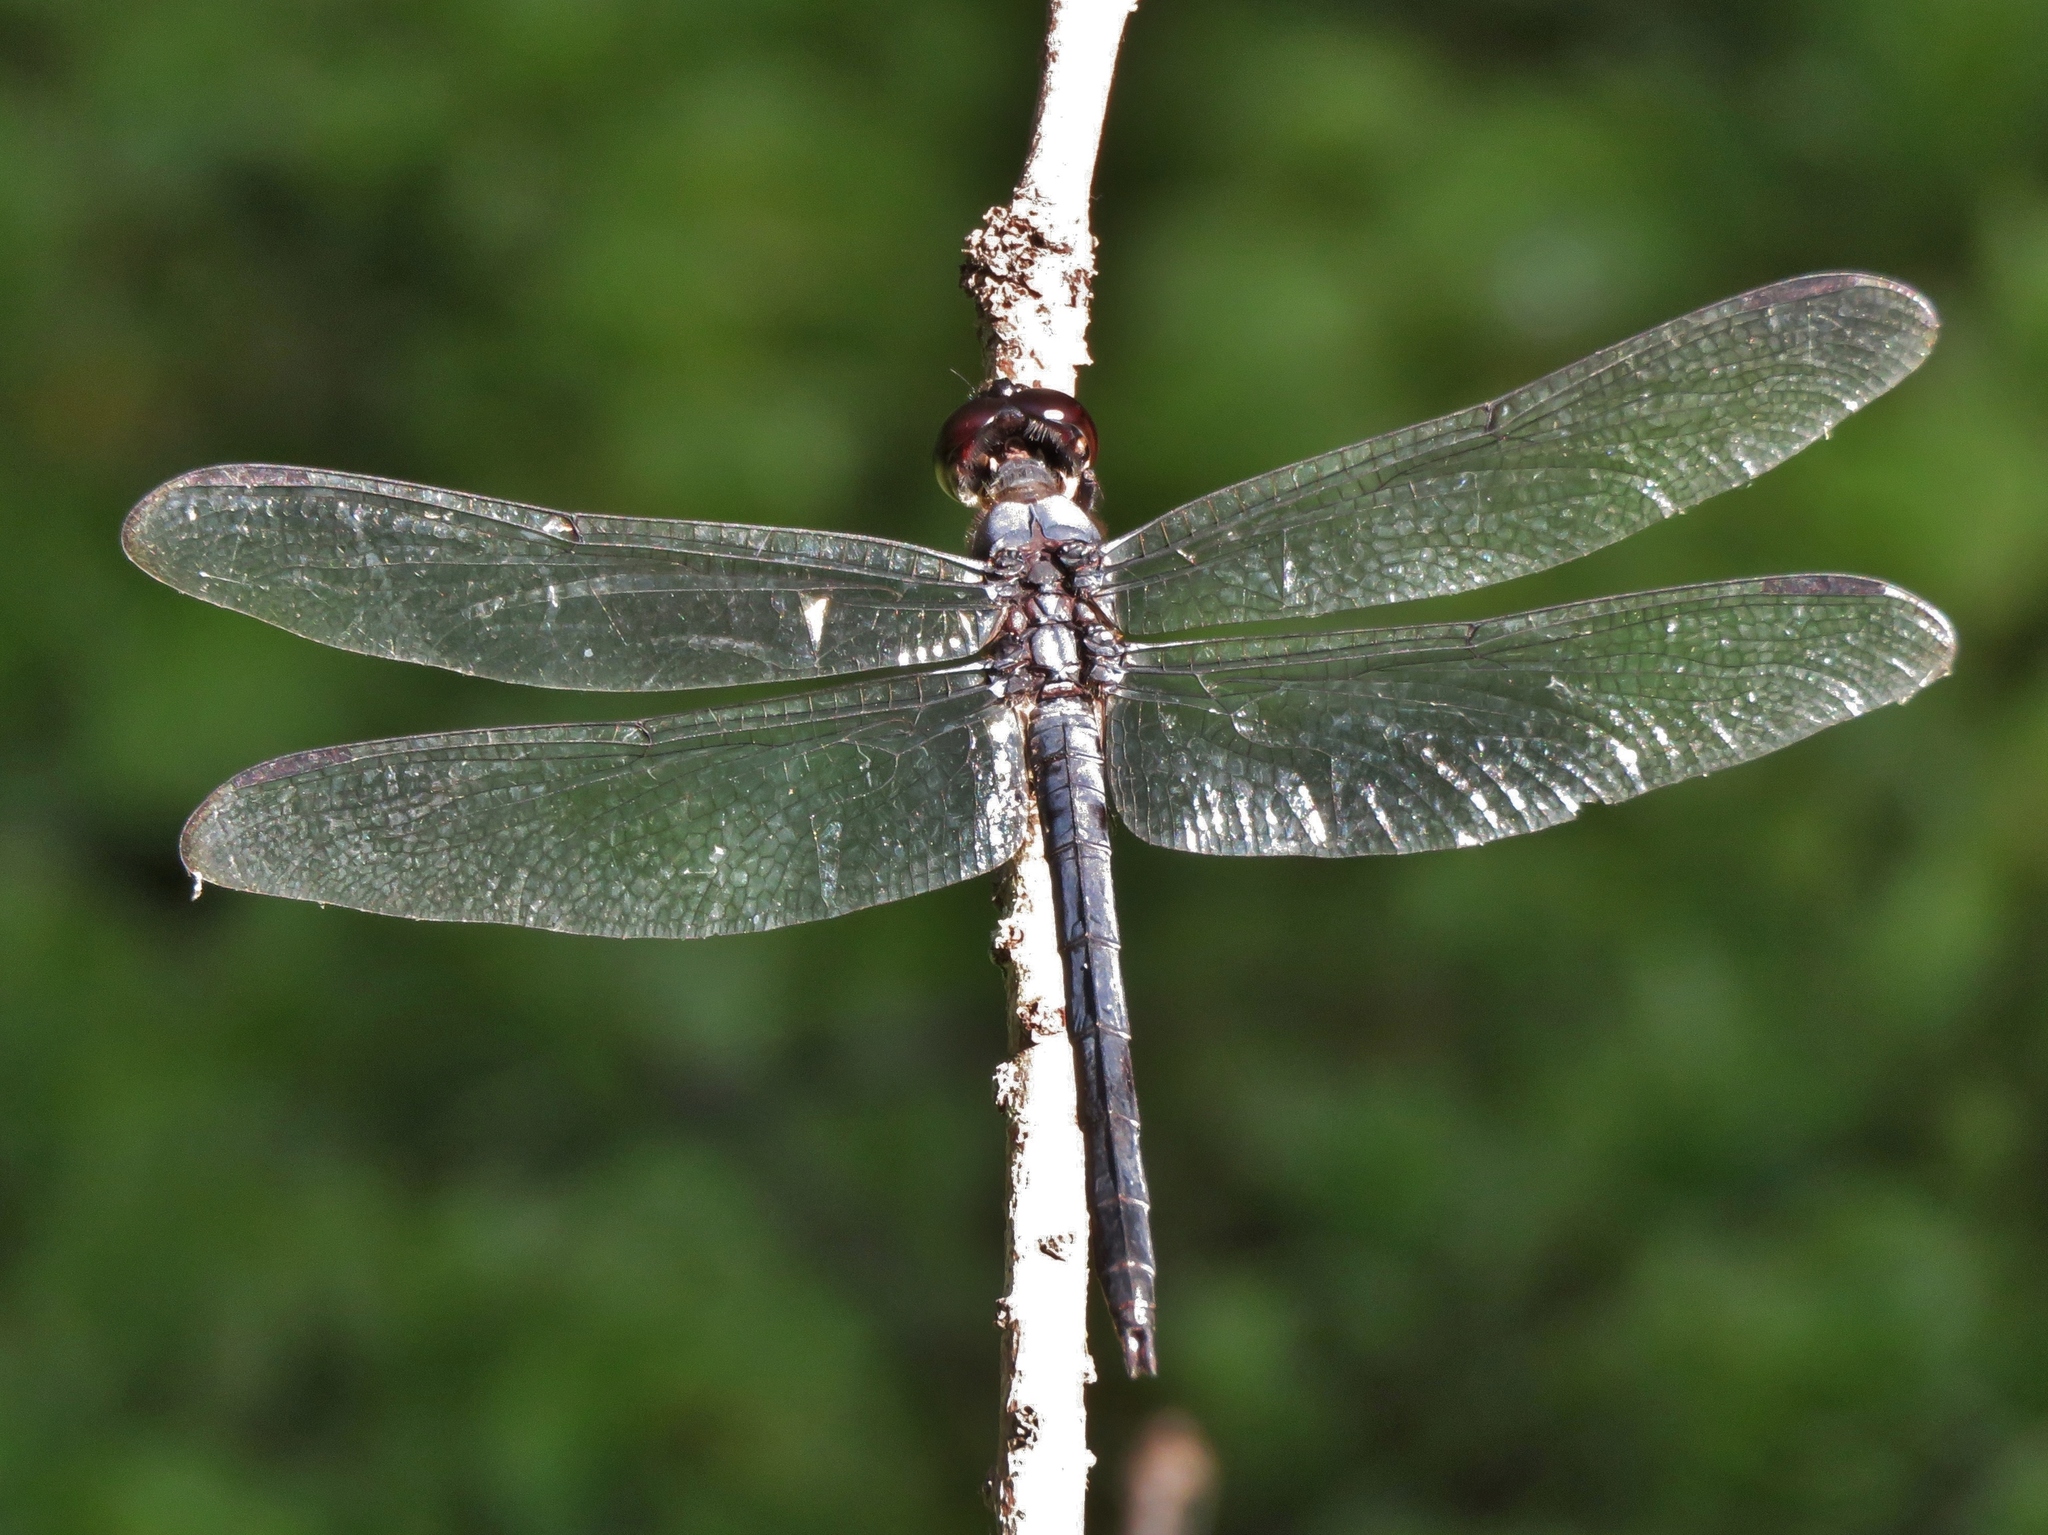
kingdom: Animalia
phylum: Arthropoda
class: Insecta
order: Odonata
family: Libellulidae
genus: Libellula
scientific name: Libellula incesta
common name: Slaty skimmer
